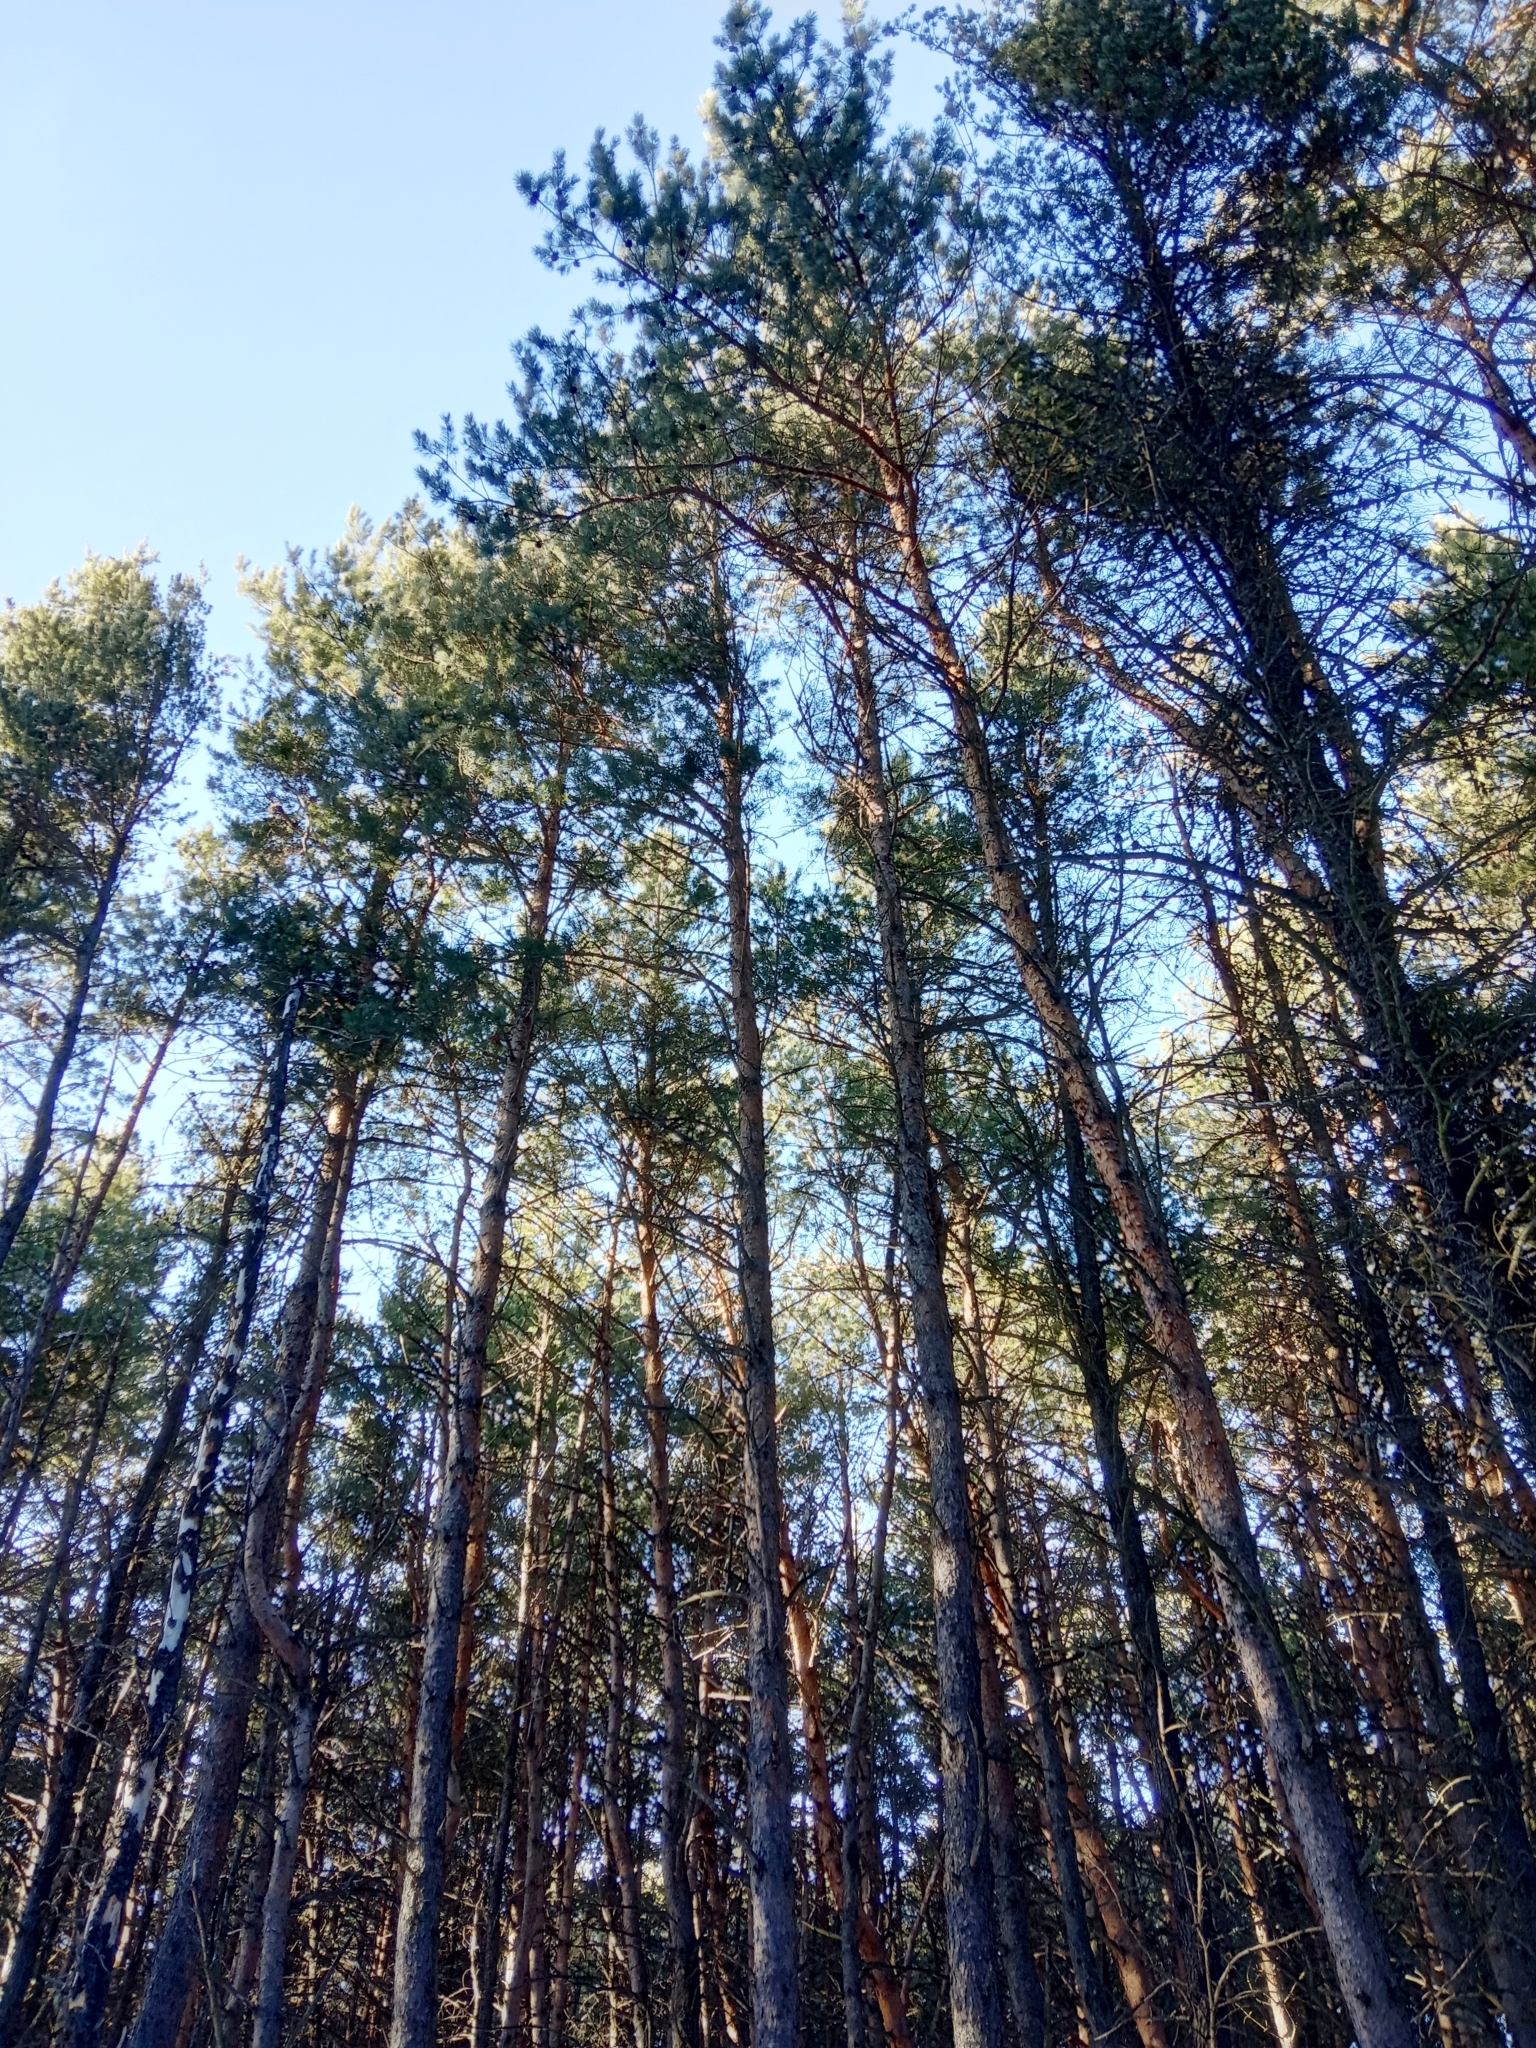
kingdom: Plantae
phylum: Tracheophyta
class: Pinopsida
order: Pinales
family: Pinaceae
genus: Pinus
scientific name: Pinus sylvestris
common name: Scots pine
